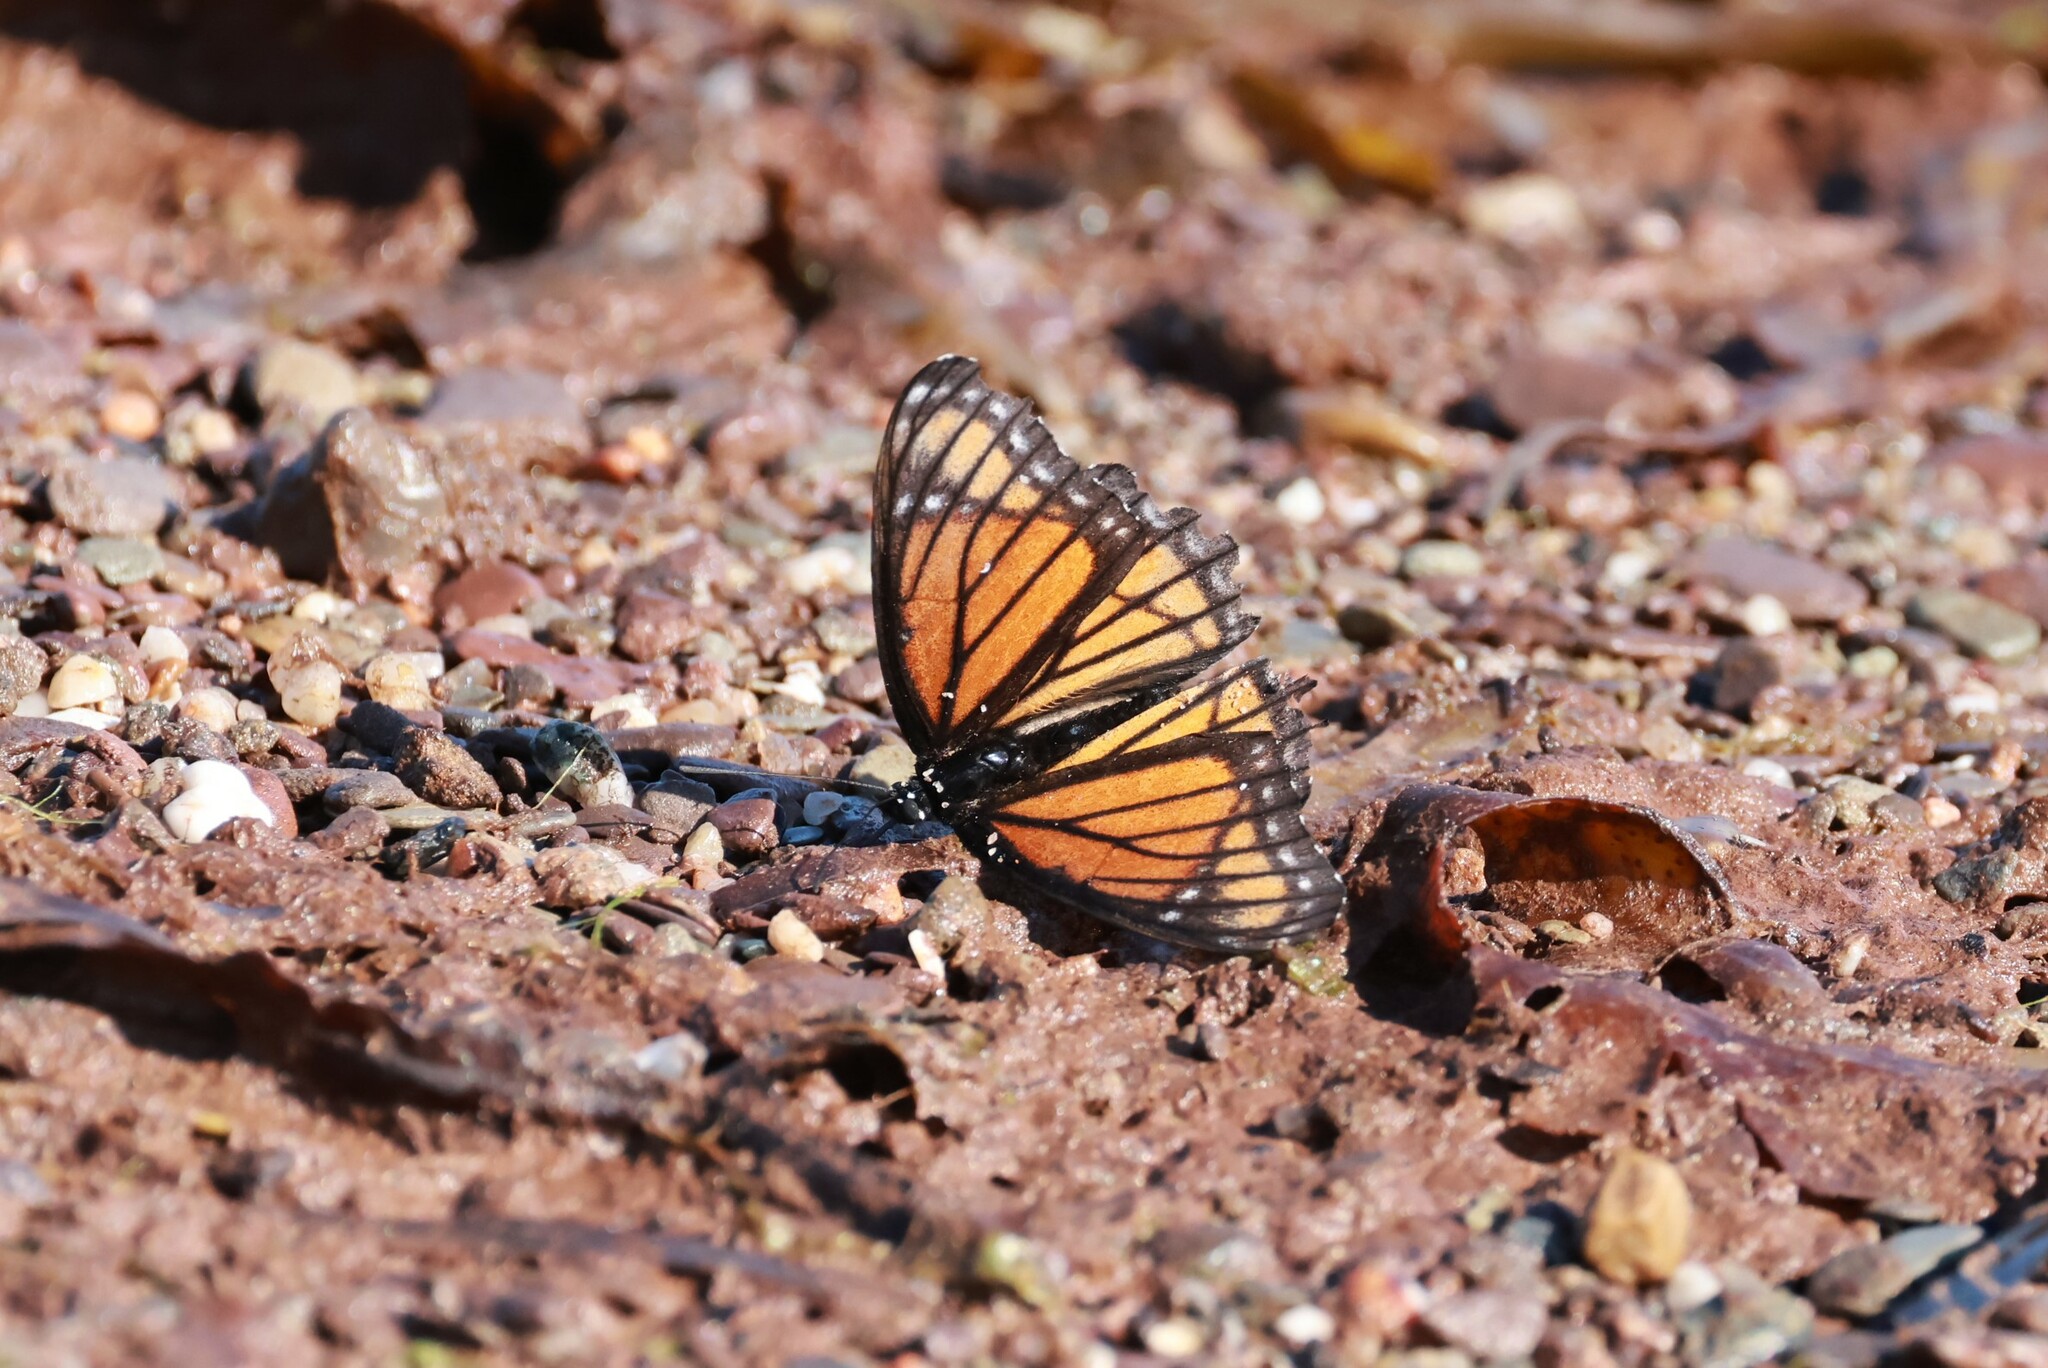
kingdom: Animalia
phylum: Arthropoda
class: Insecta
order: Lepidoptera
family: Nymphalidae
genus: Limenitis
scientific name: Limenitis archippus
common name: Viceroy
